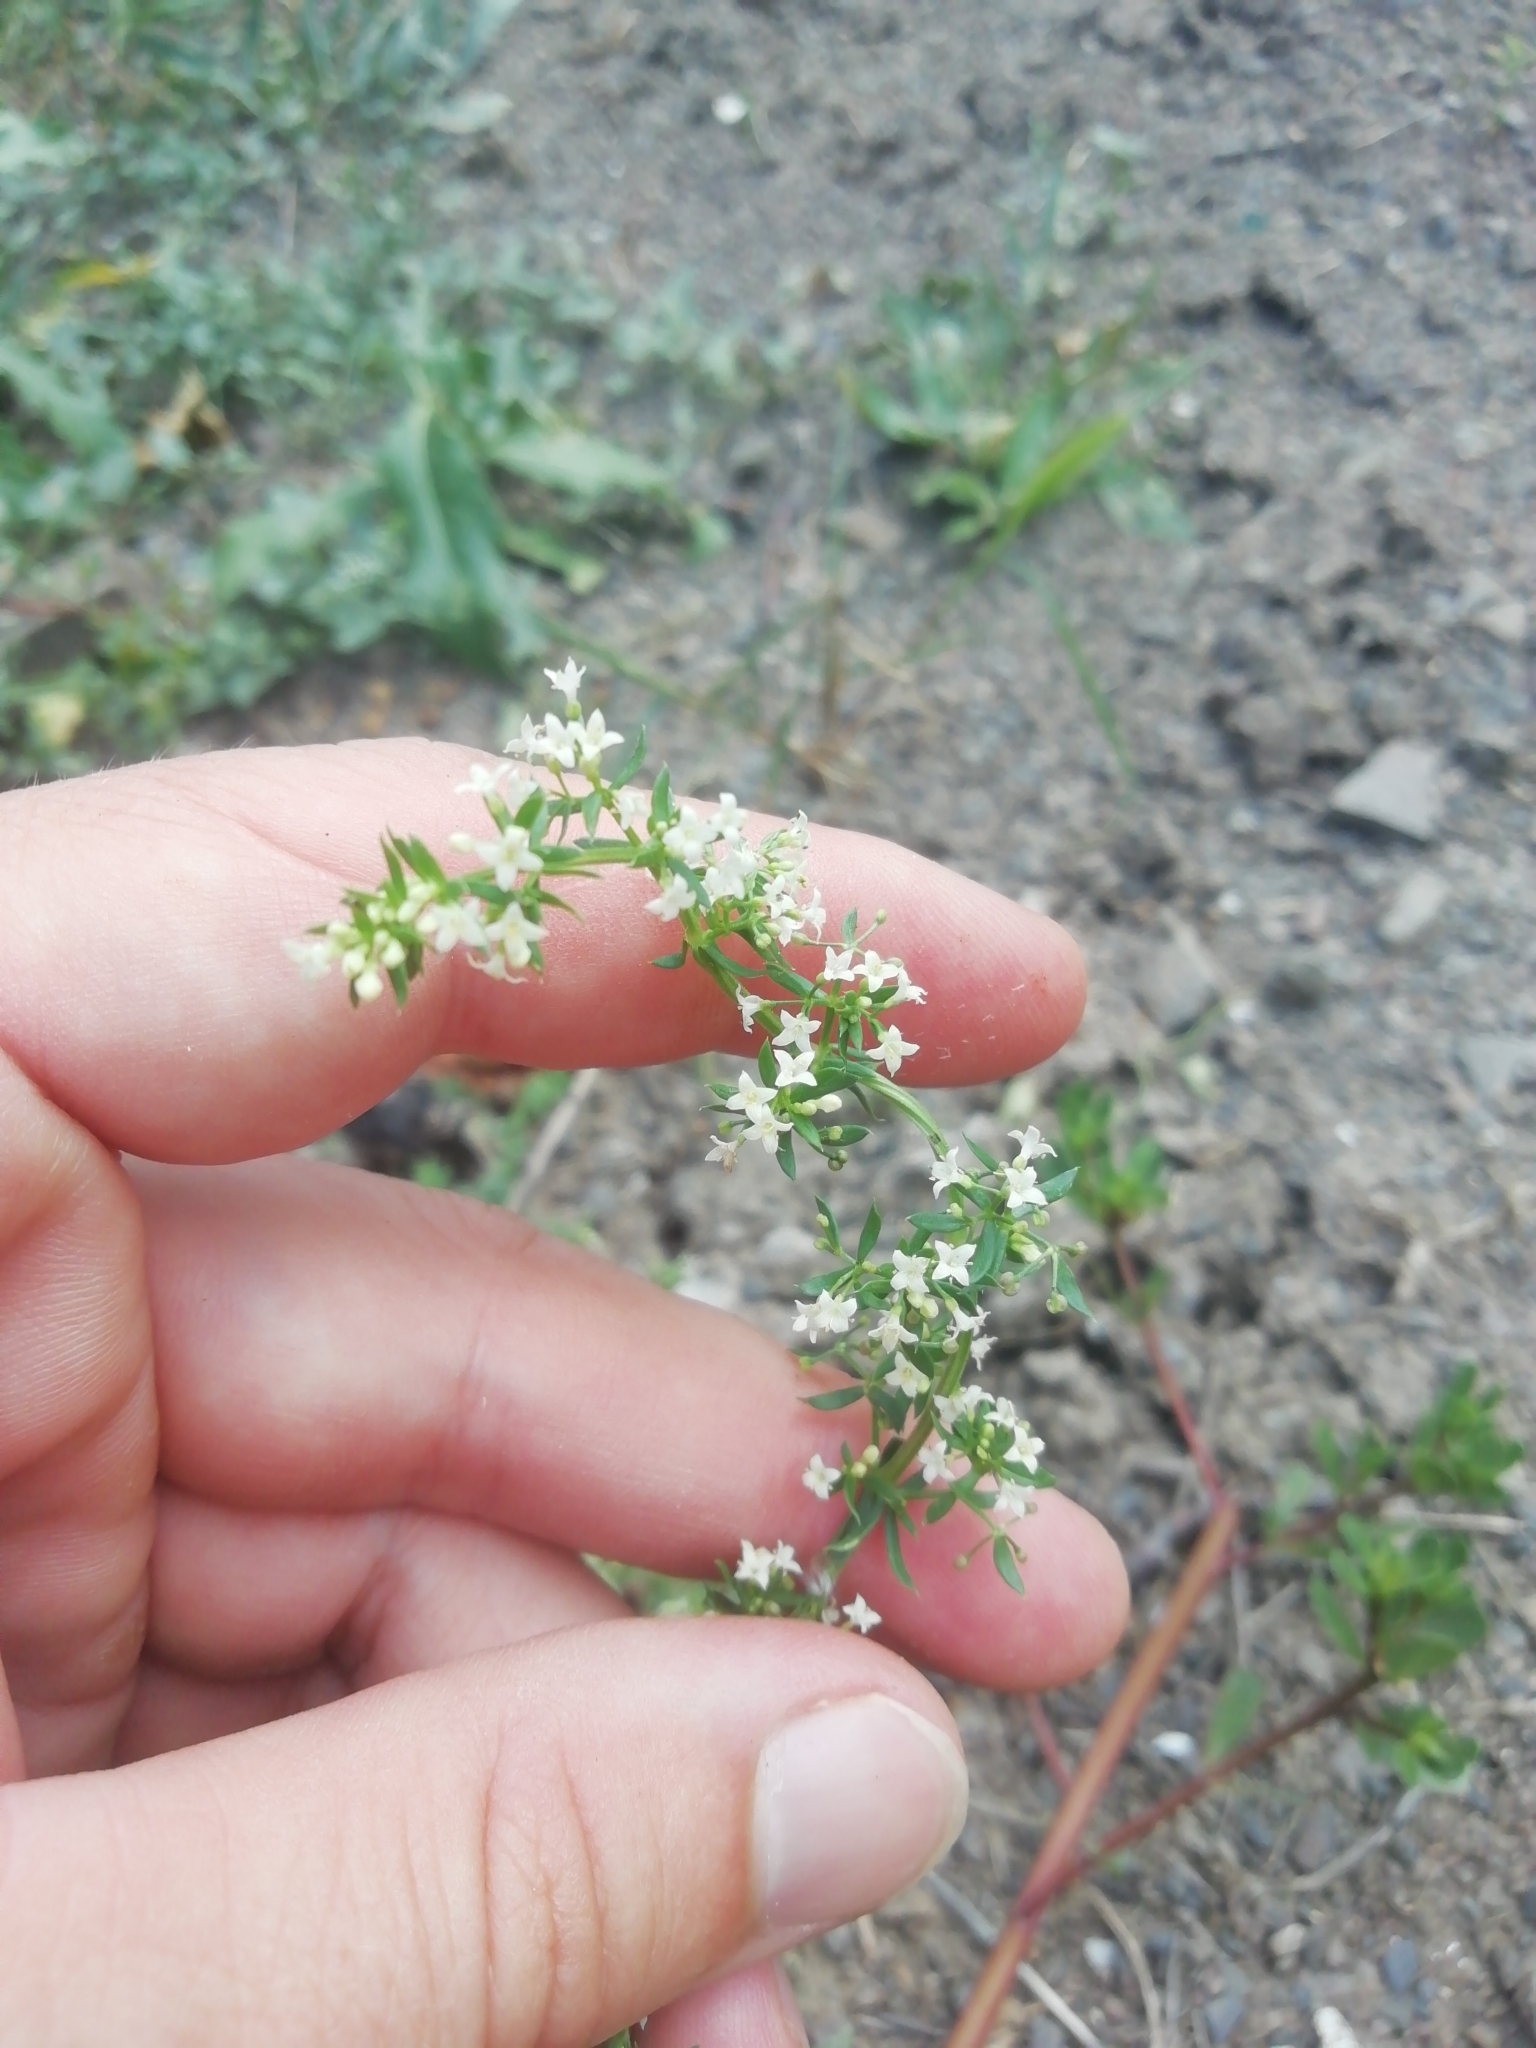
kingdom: Plantae
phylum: Tracheophyta
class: Magnoliopsida
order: Gentianales
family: Rubiaceae
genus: Galium
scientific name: Galium humifusum
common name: Spreading bedstraw
